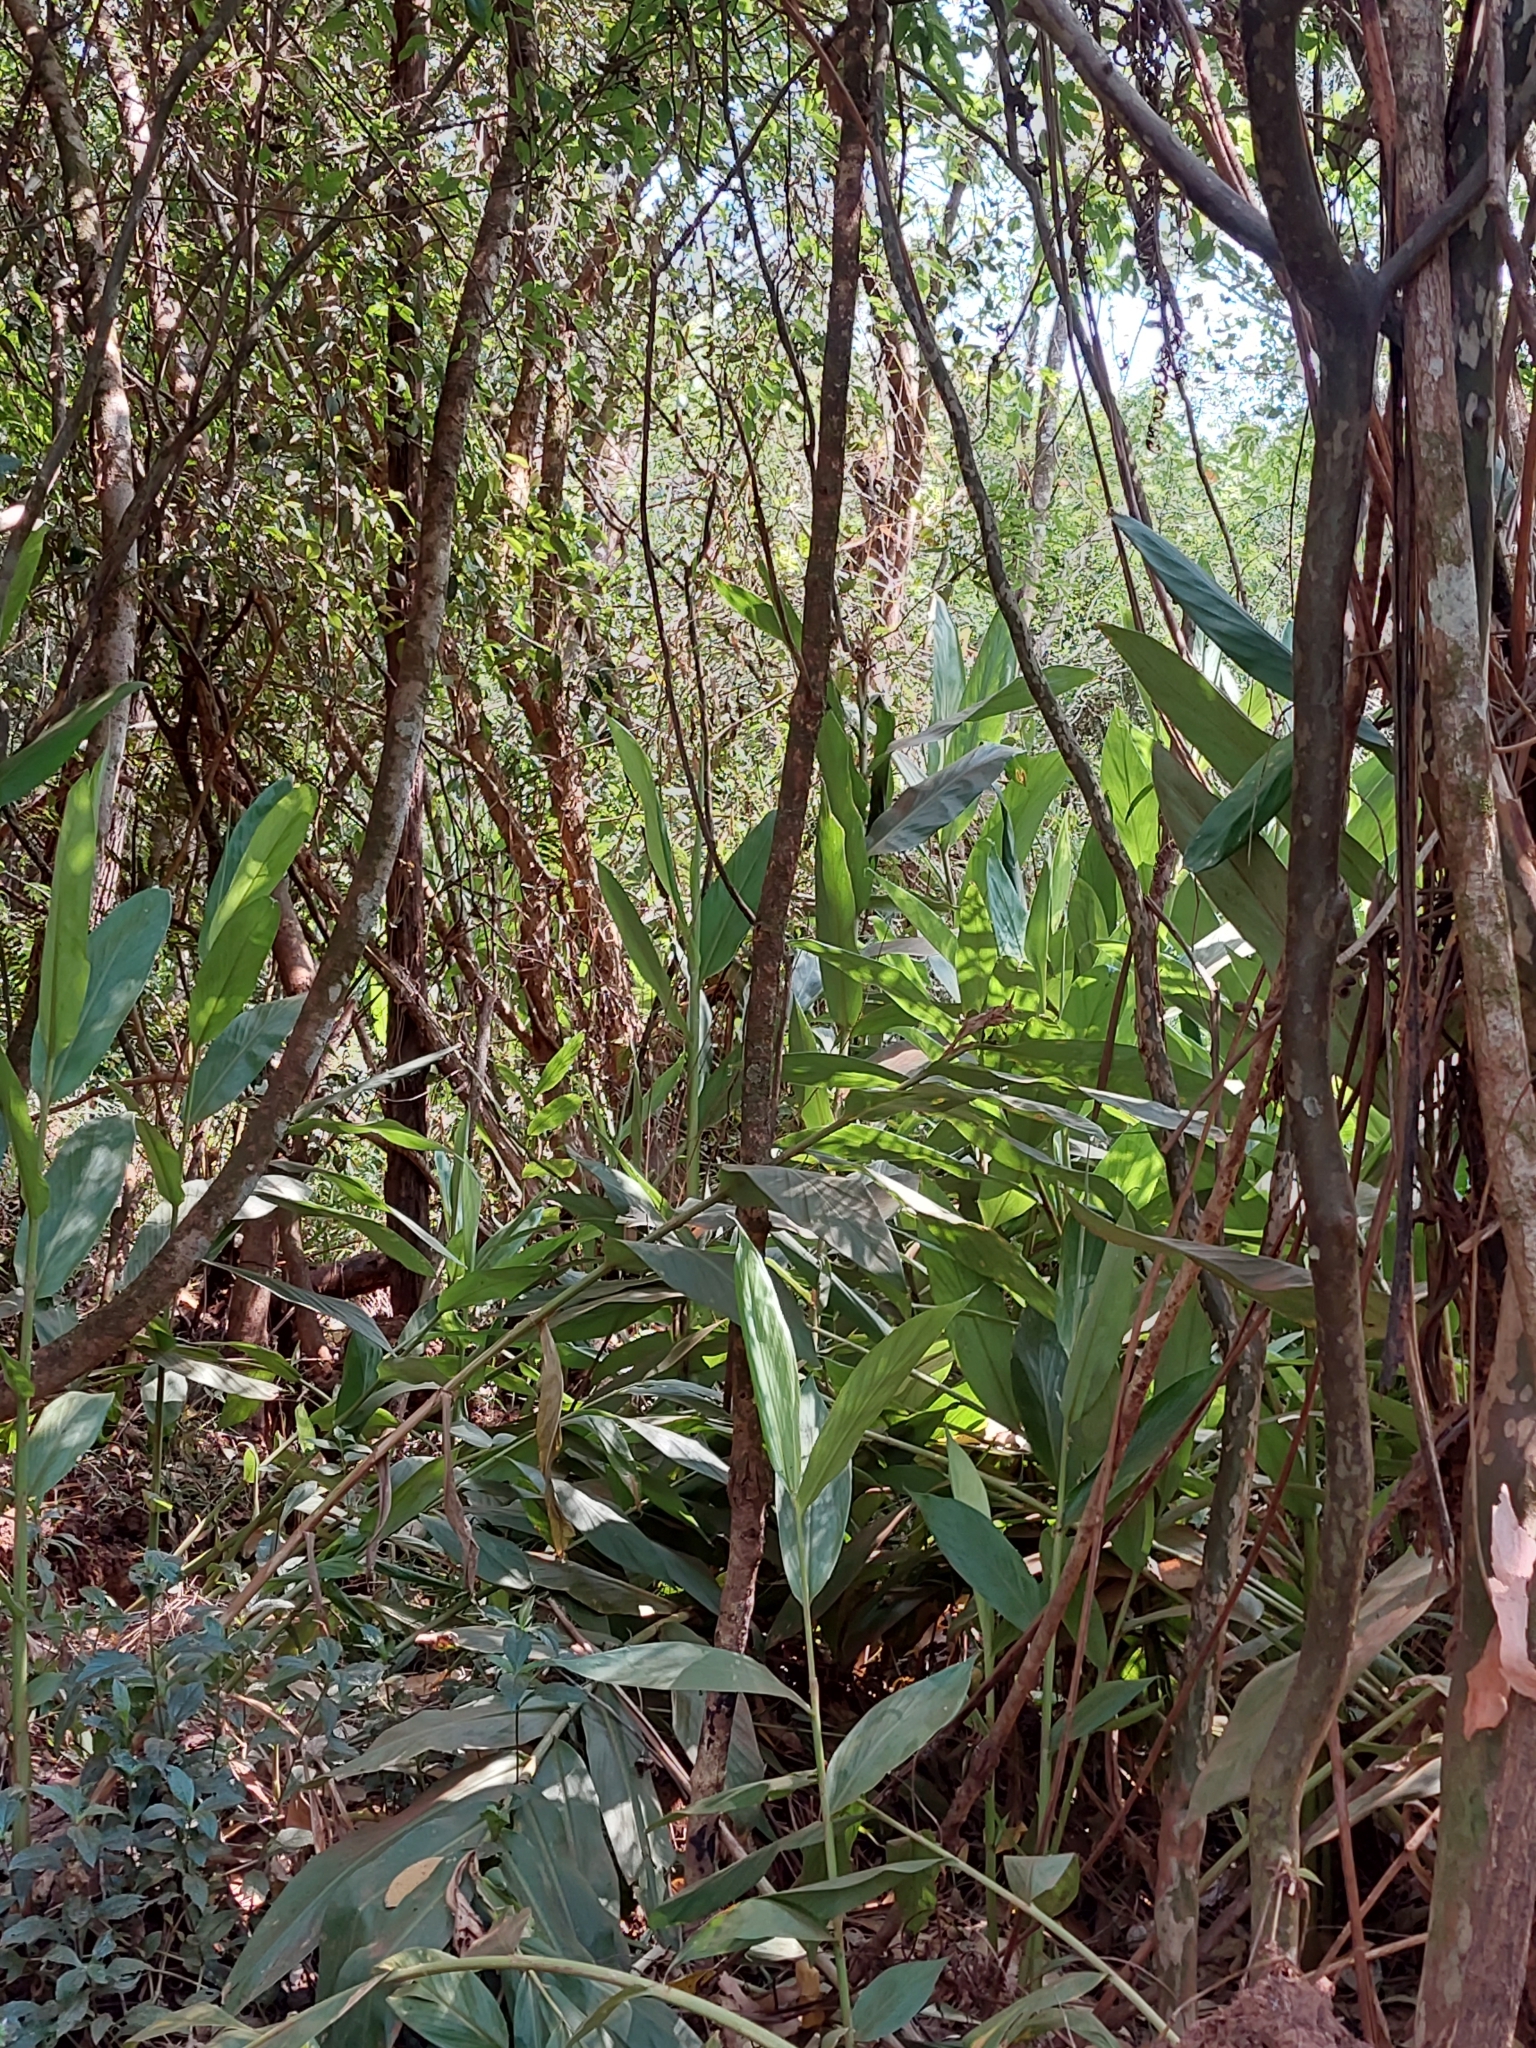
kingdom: Plantae
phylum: Tracheophyta
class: Liliopsida
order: Zingiberales
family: Zingiberaceae
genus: Hedychium
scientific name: Hedychium coronarium
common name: White garland-lily
